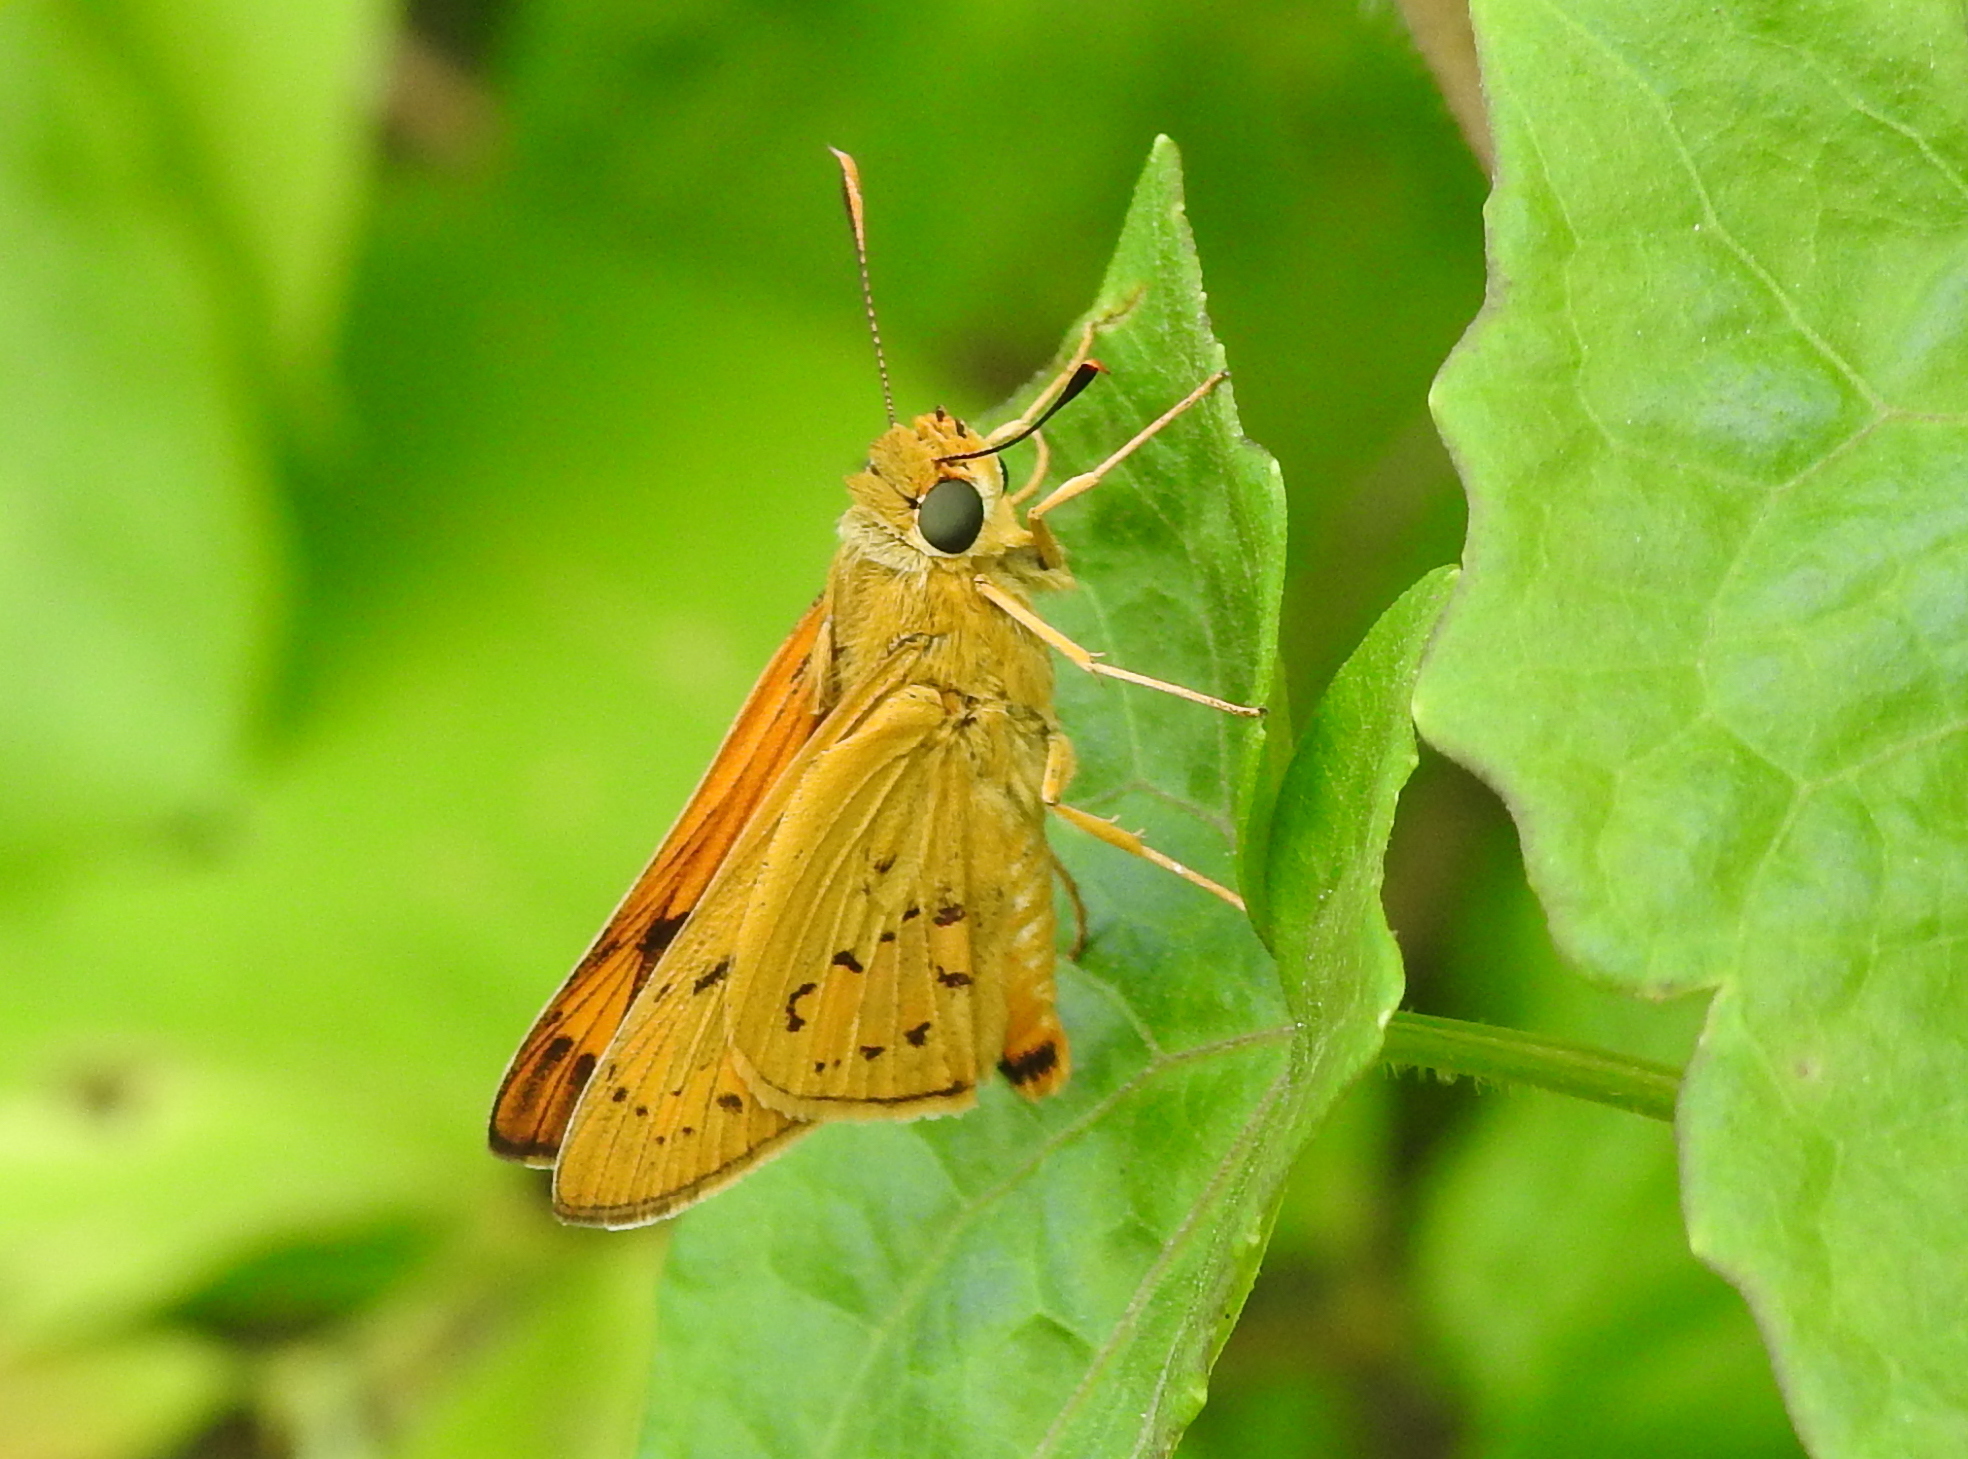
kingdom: Animalia
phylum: Arthropoda
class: Insecta
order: Lepidoptera
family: Hesperiidae
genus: Cephrenes
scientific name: Cephrenes trichopepla
